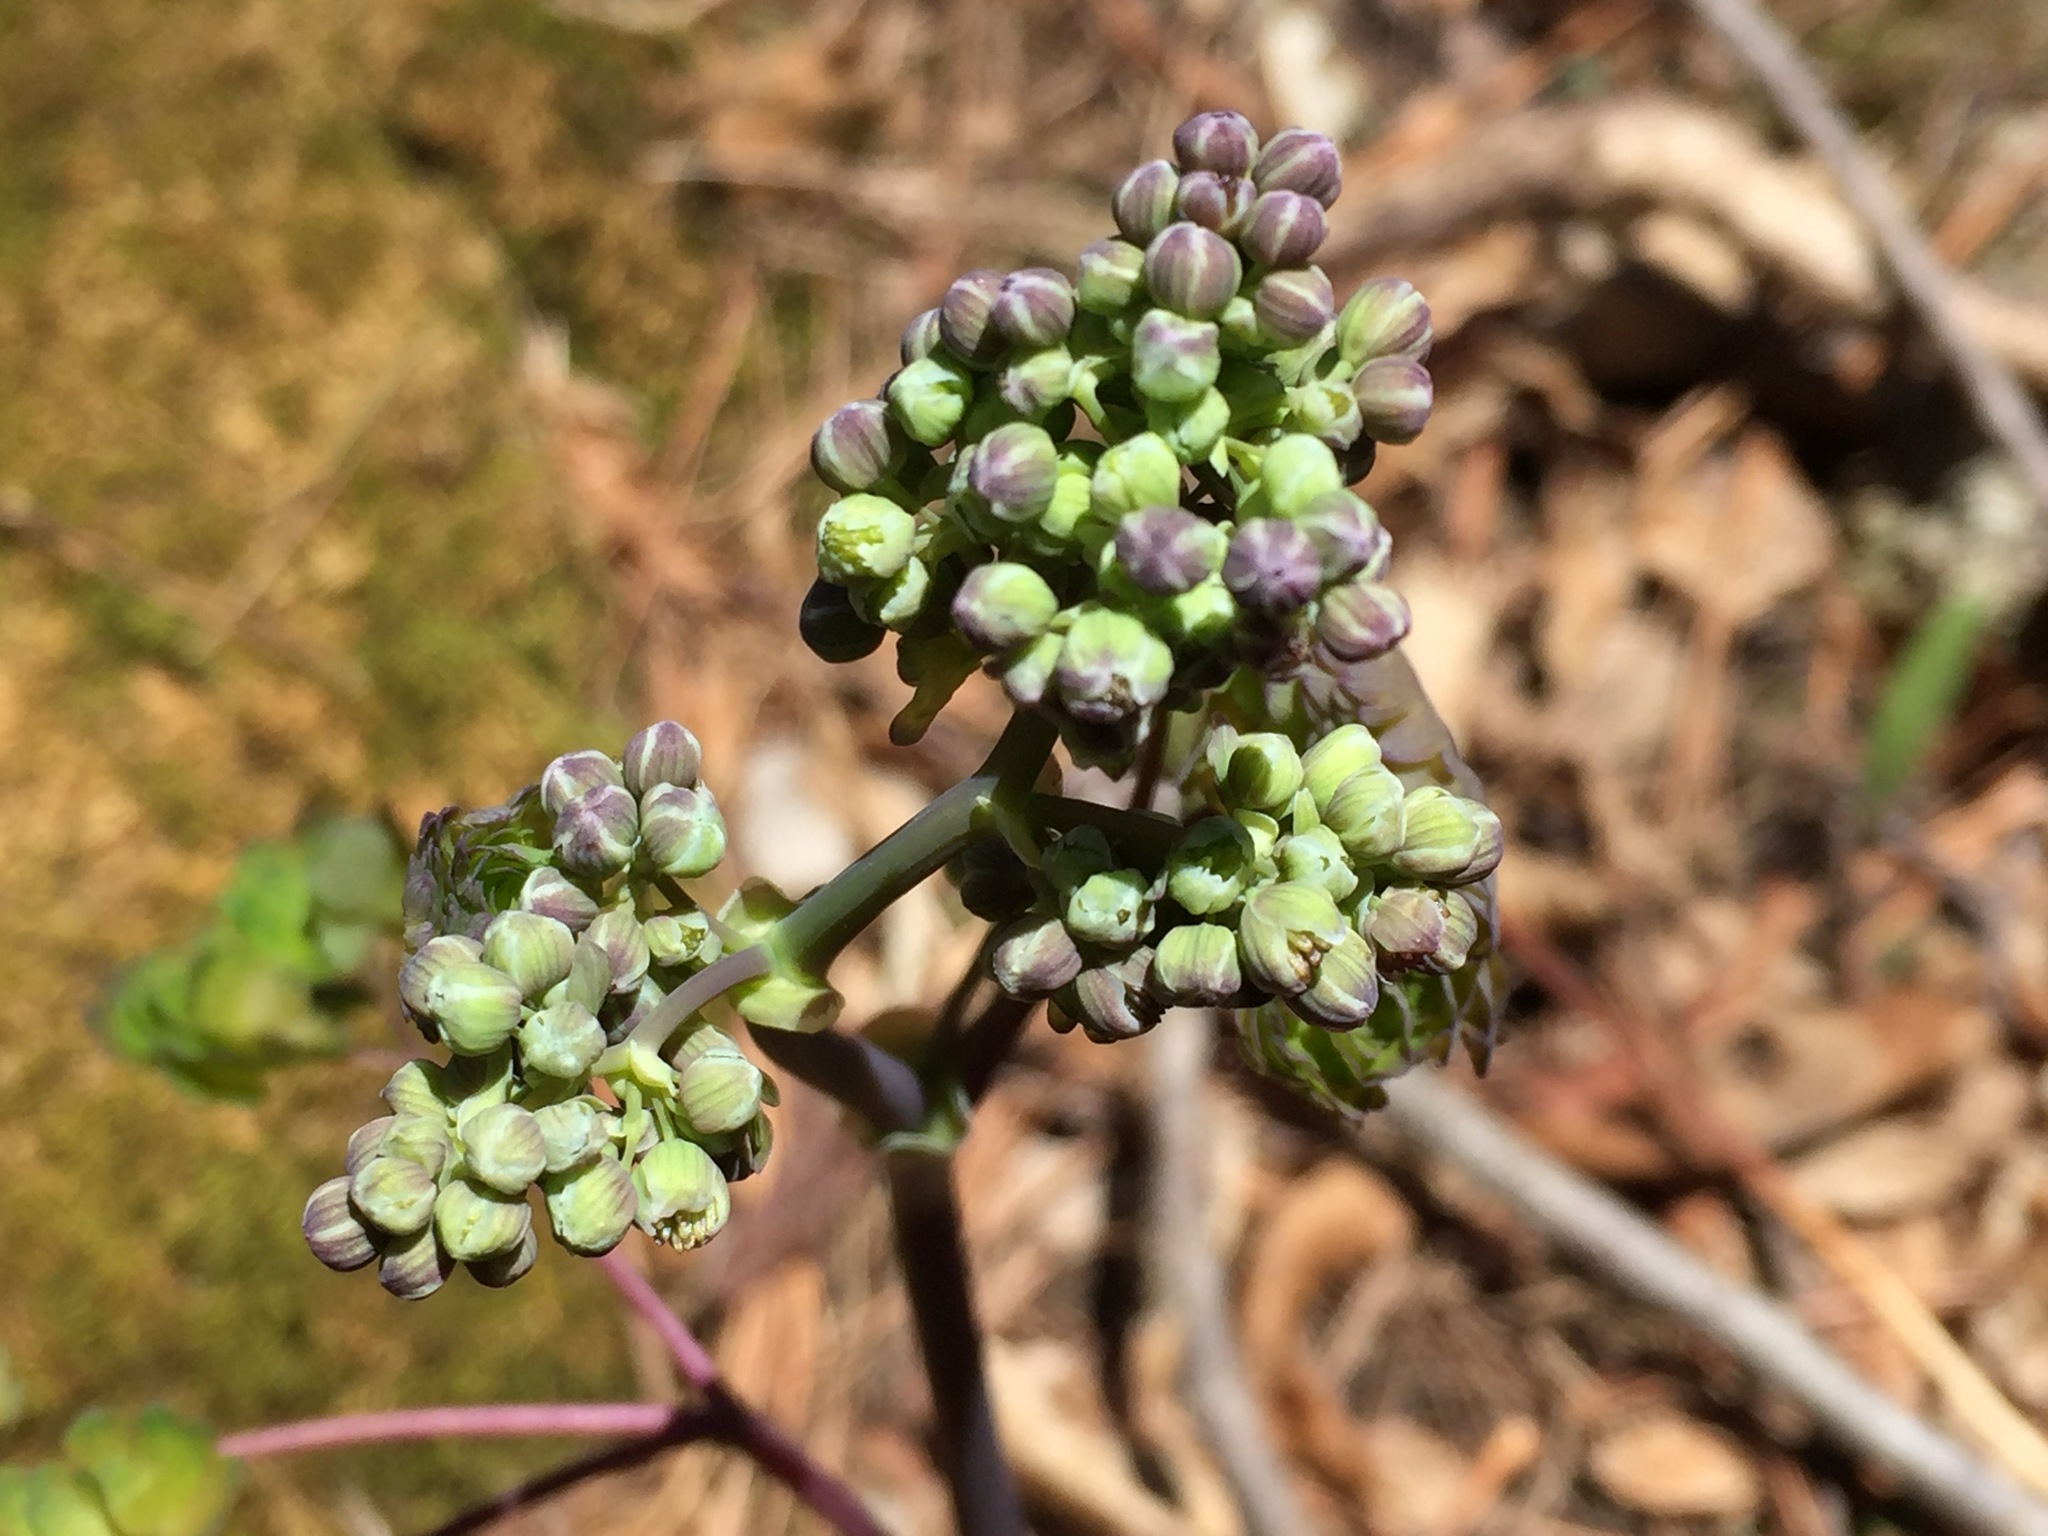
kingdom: Plantae
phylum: Tracheophyta
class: Magnoliopsida
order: Ranunculales
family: Ranunculaceae
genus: Thalictrum
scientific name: Thalictrum dioicum
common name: Early meadow-rue
